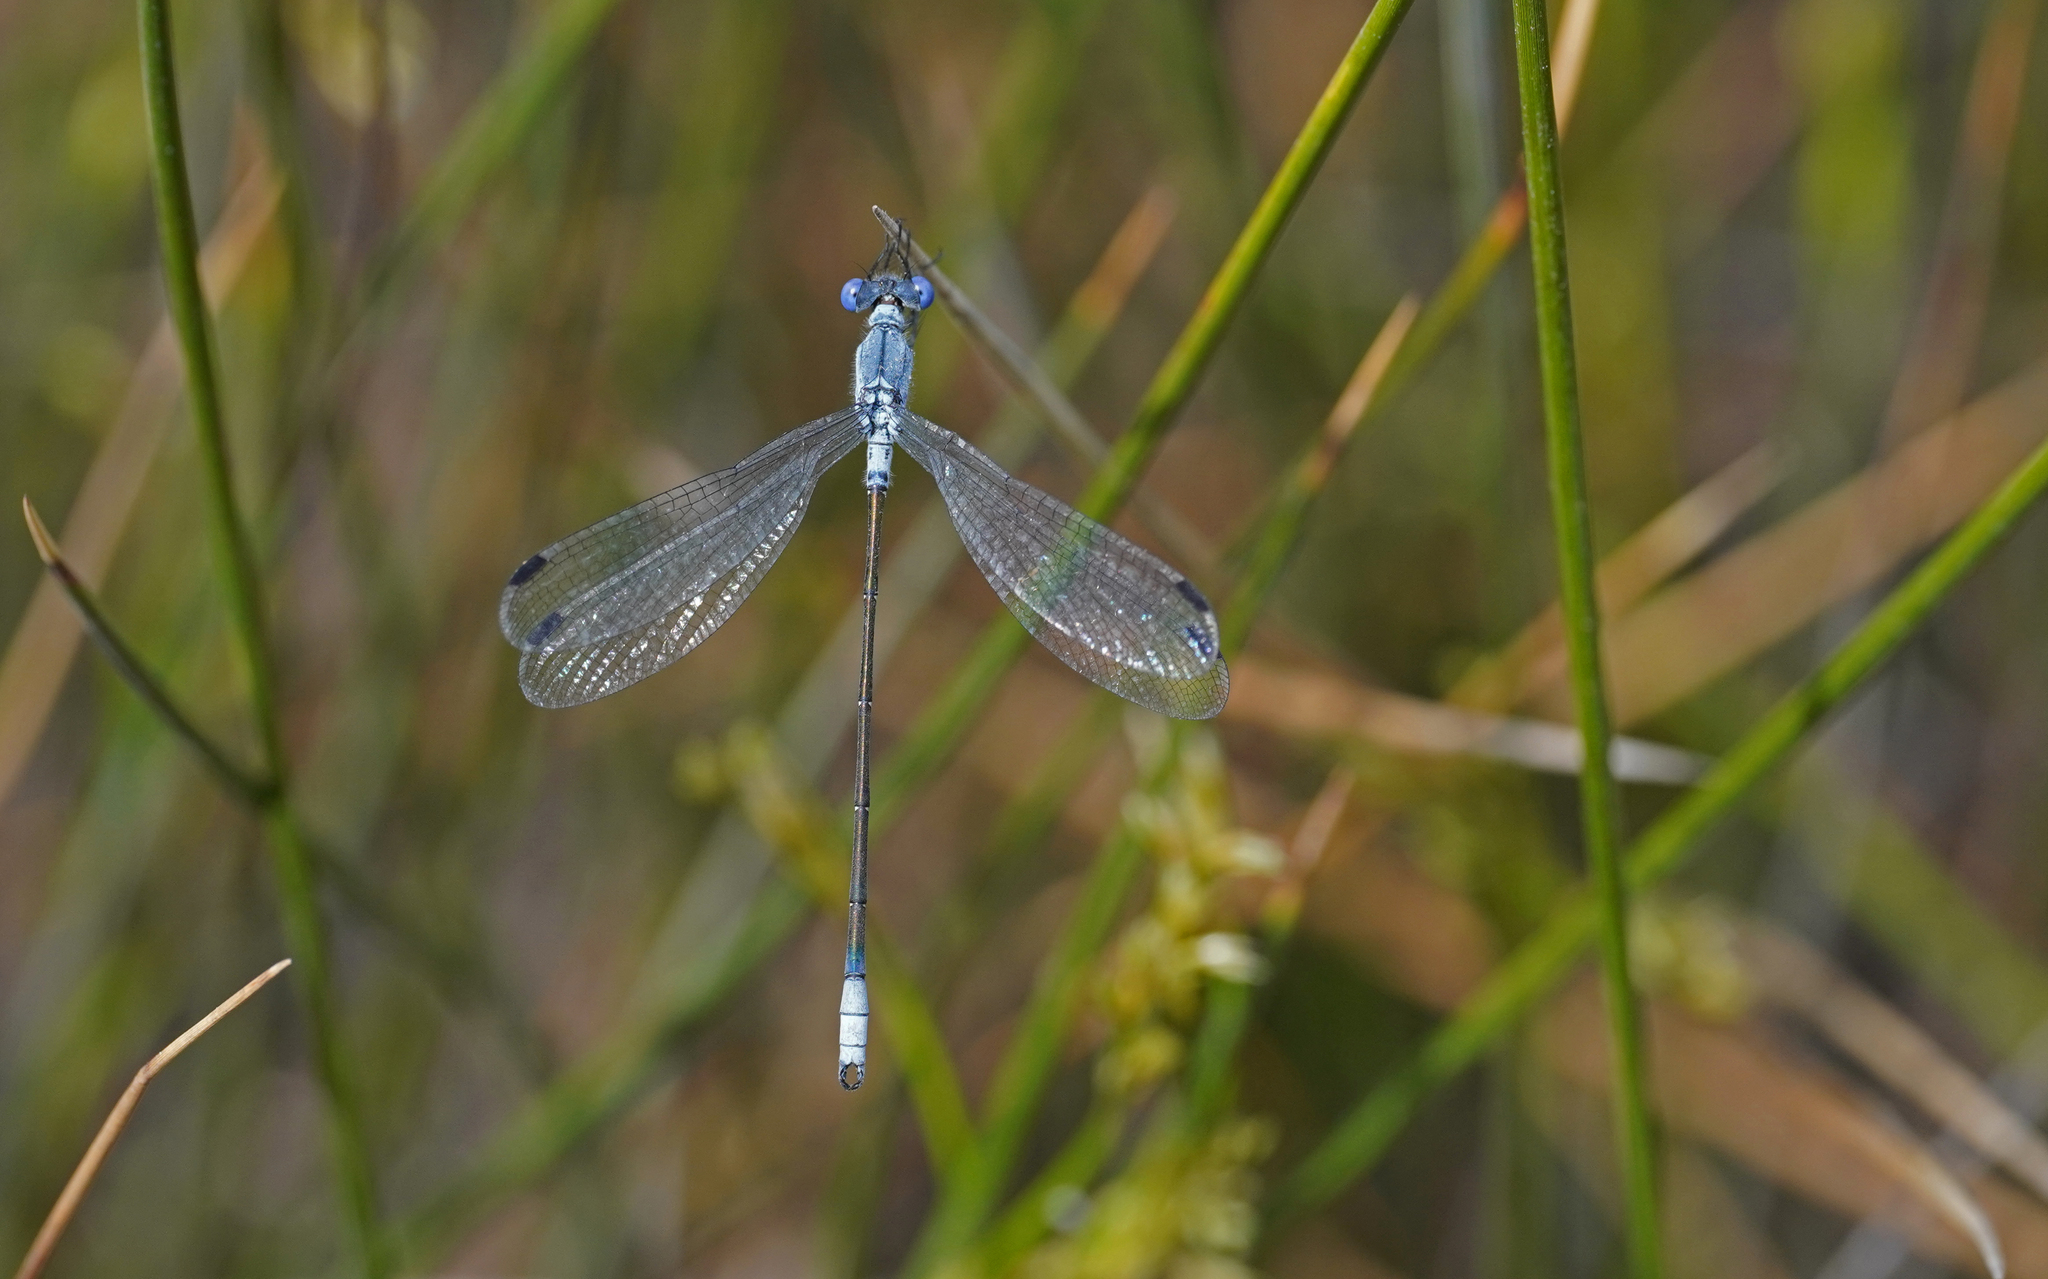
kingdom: Animalia
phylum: Arthropoda
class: Insecta
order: Odonata
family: Lestidae
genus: Lestes
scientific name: Lestes macrostigma
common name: Dark spreadwing
